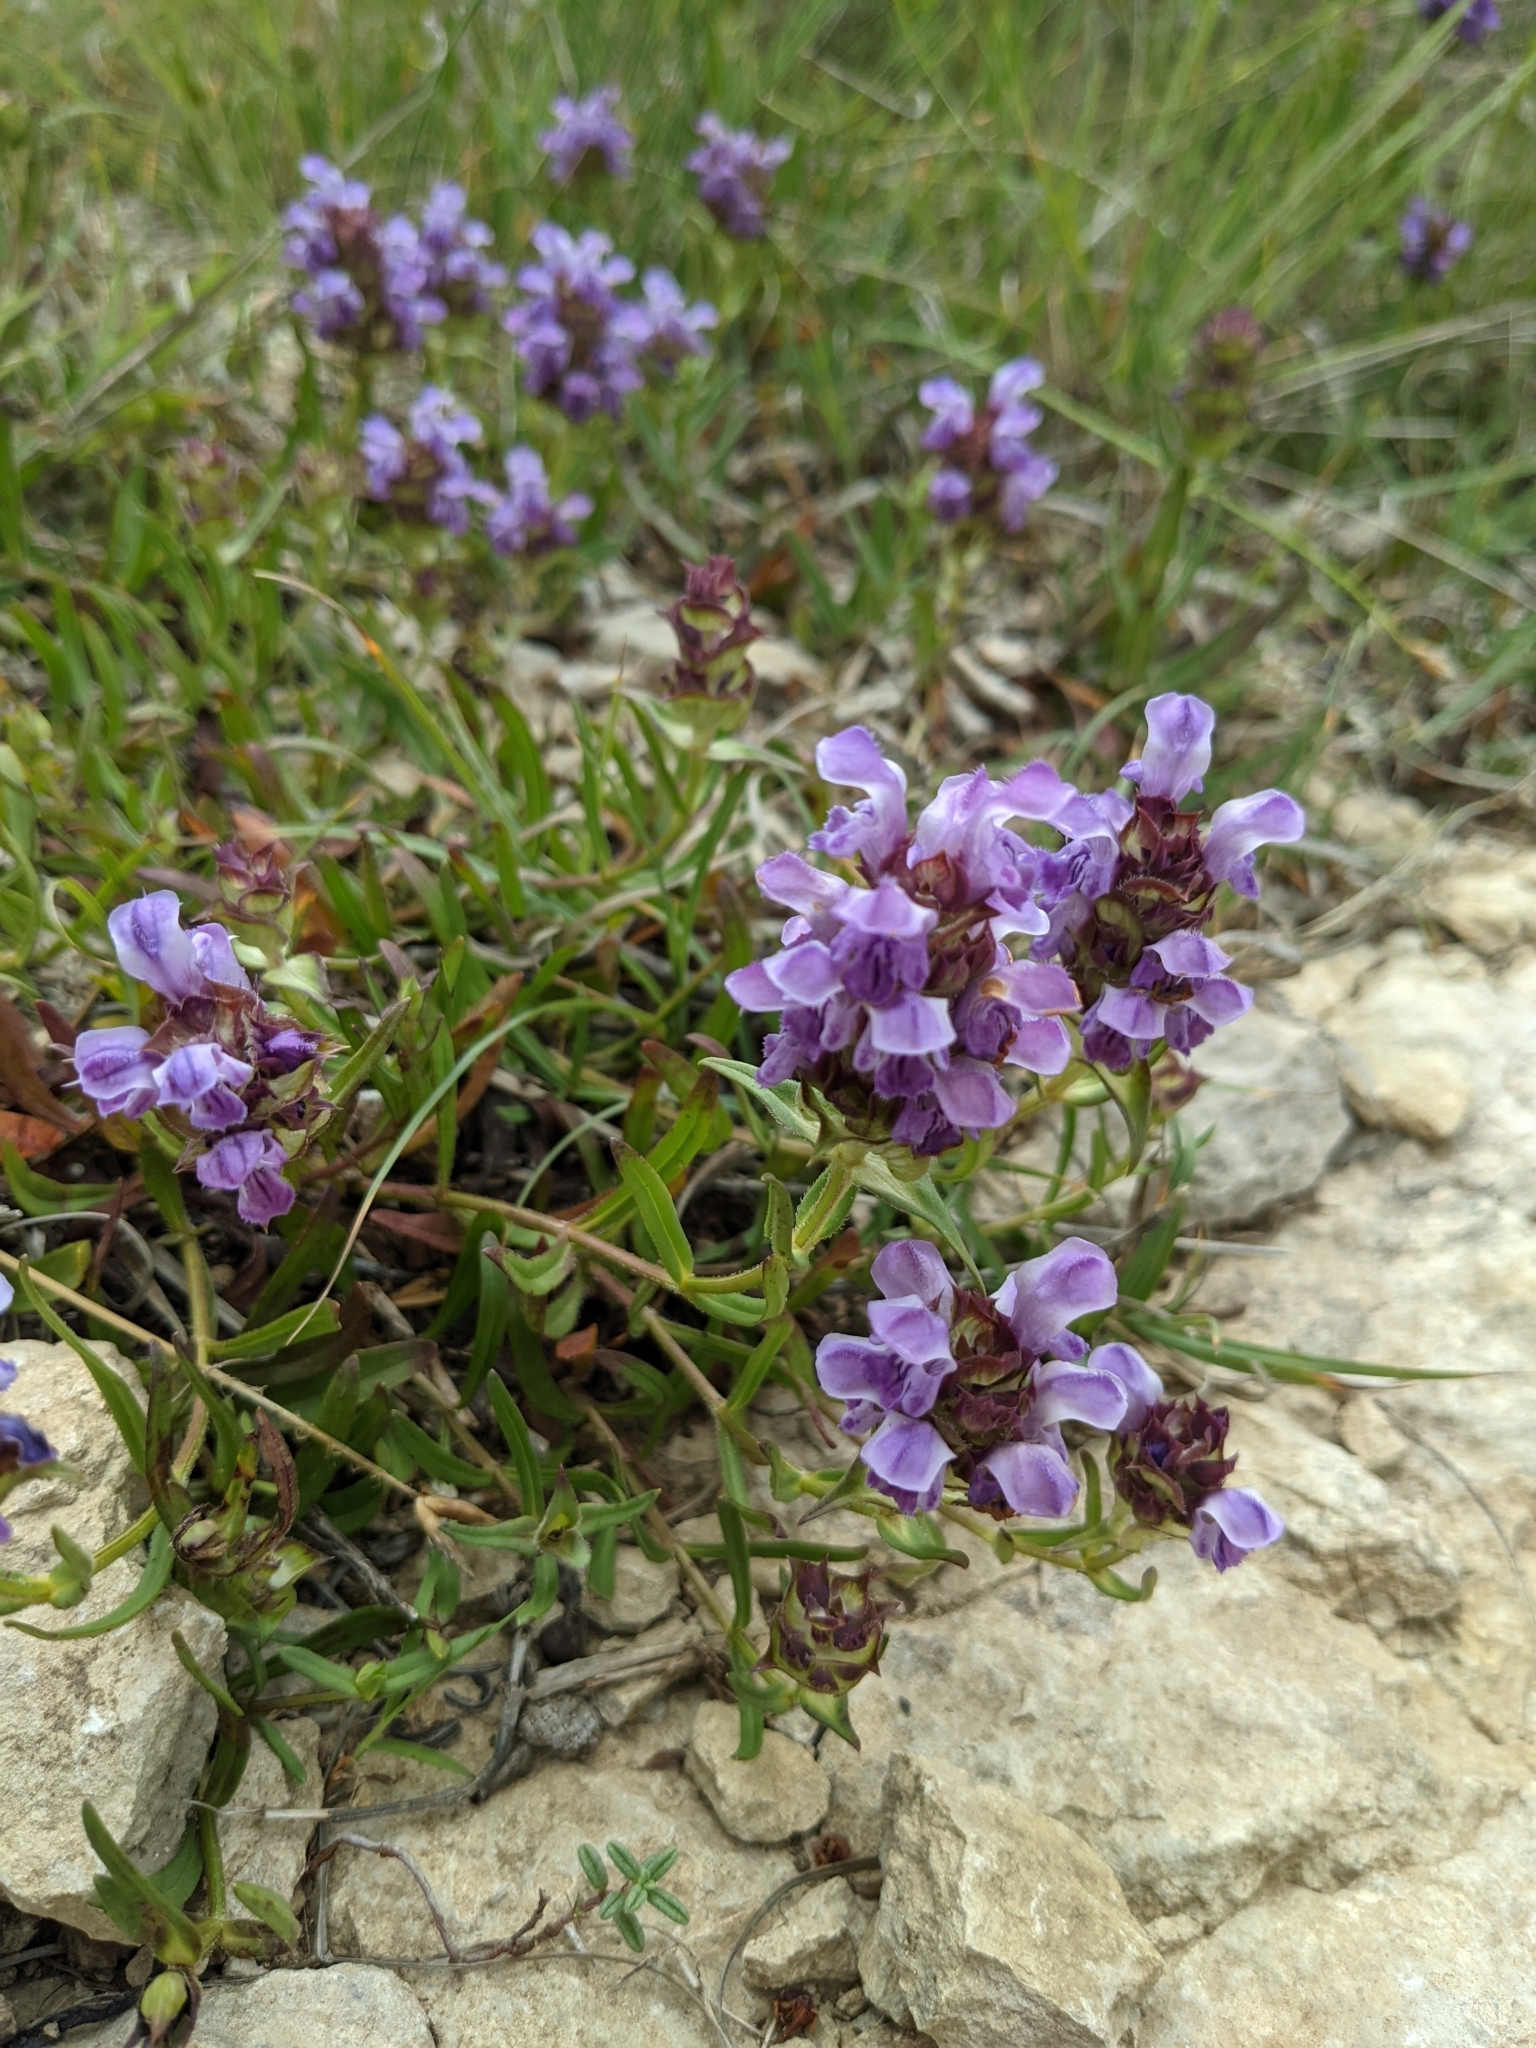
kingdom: Plantae
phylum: Tracheophyta
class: Magnoliopsida
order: Lamiales
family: Lamiaceae
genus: Prunella
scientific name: Prunella hyssopifolia
